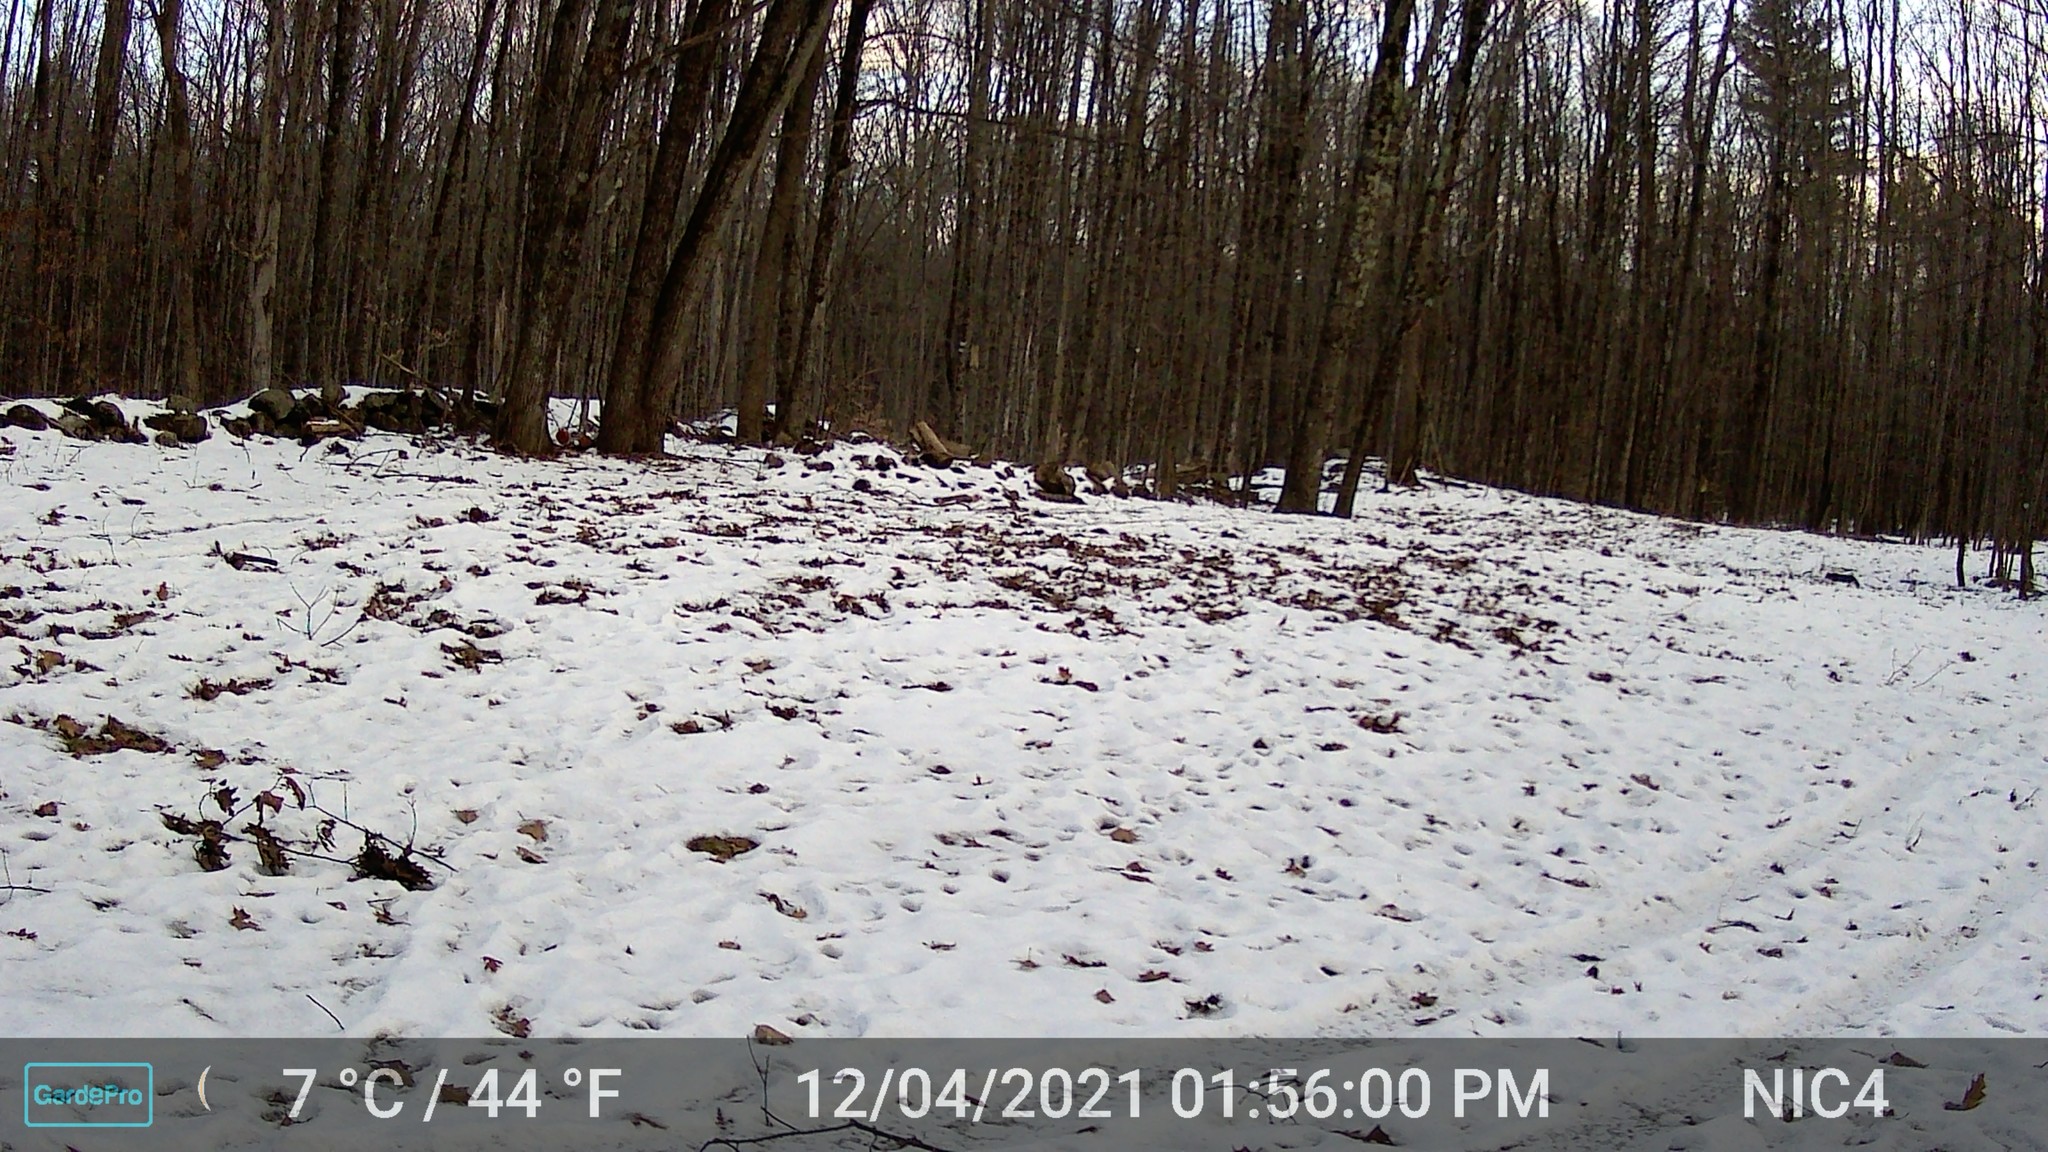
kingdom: Animalia
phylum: Chordata
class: Mammalia
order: Carnivora
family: Felidae
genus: Felis
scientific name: Felis catus
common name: Domestic cat
